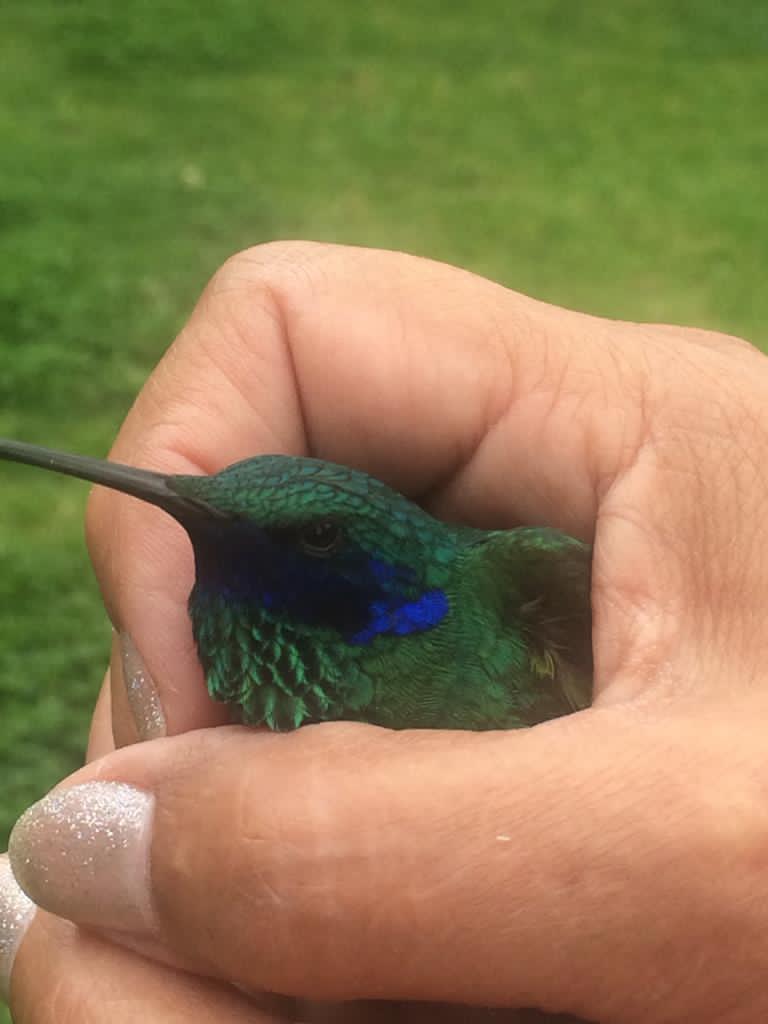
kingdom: Animalia
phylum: Chordata
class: Aves
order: Apodiformes
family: Trochilidae
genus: Colibri
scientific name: Colibri coruscans
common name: Sparkling violetear
